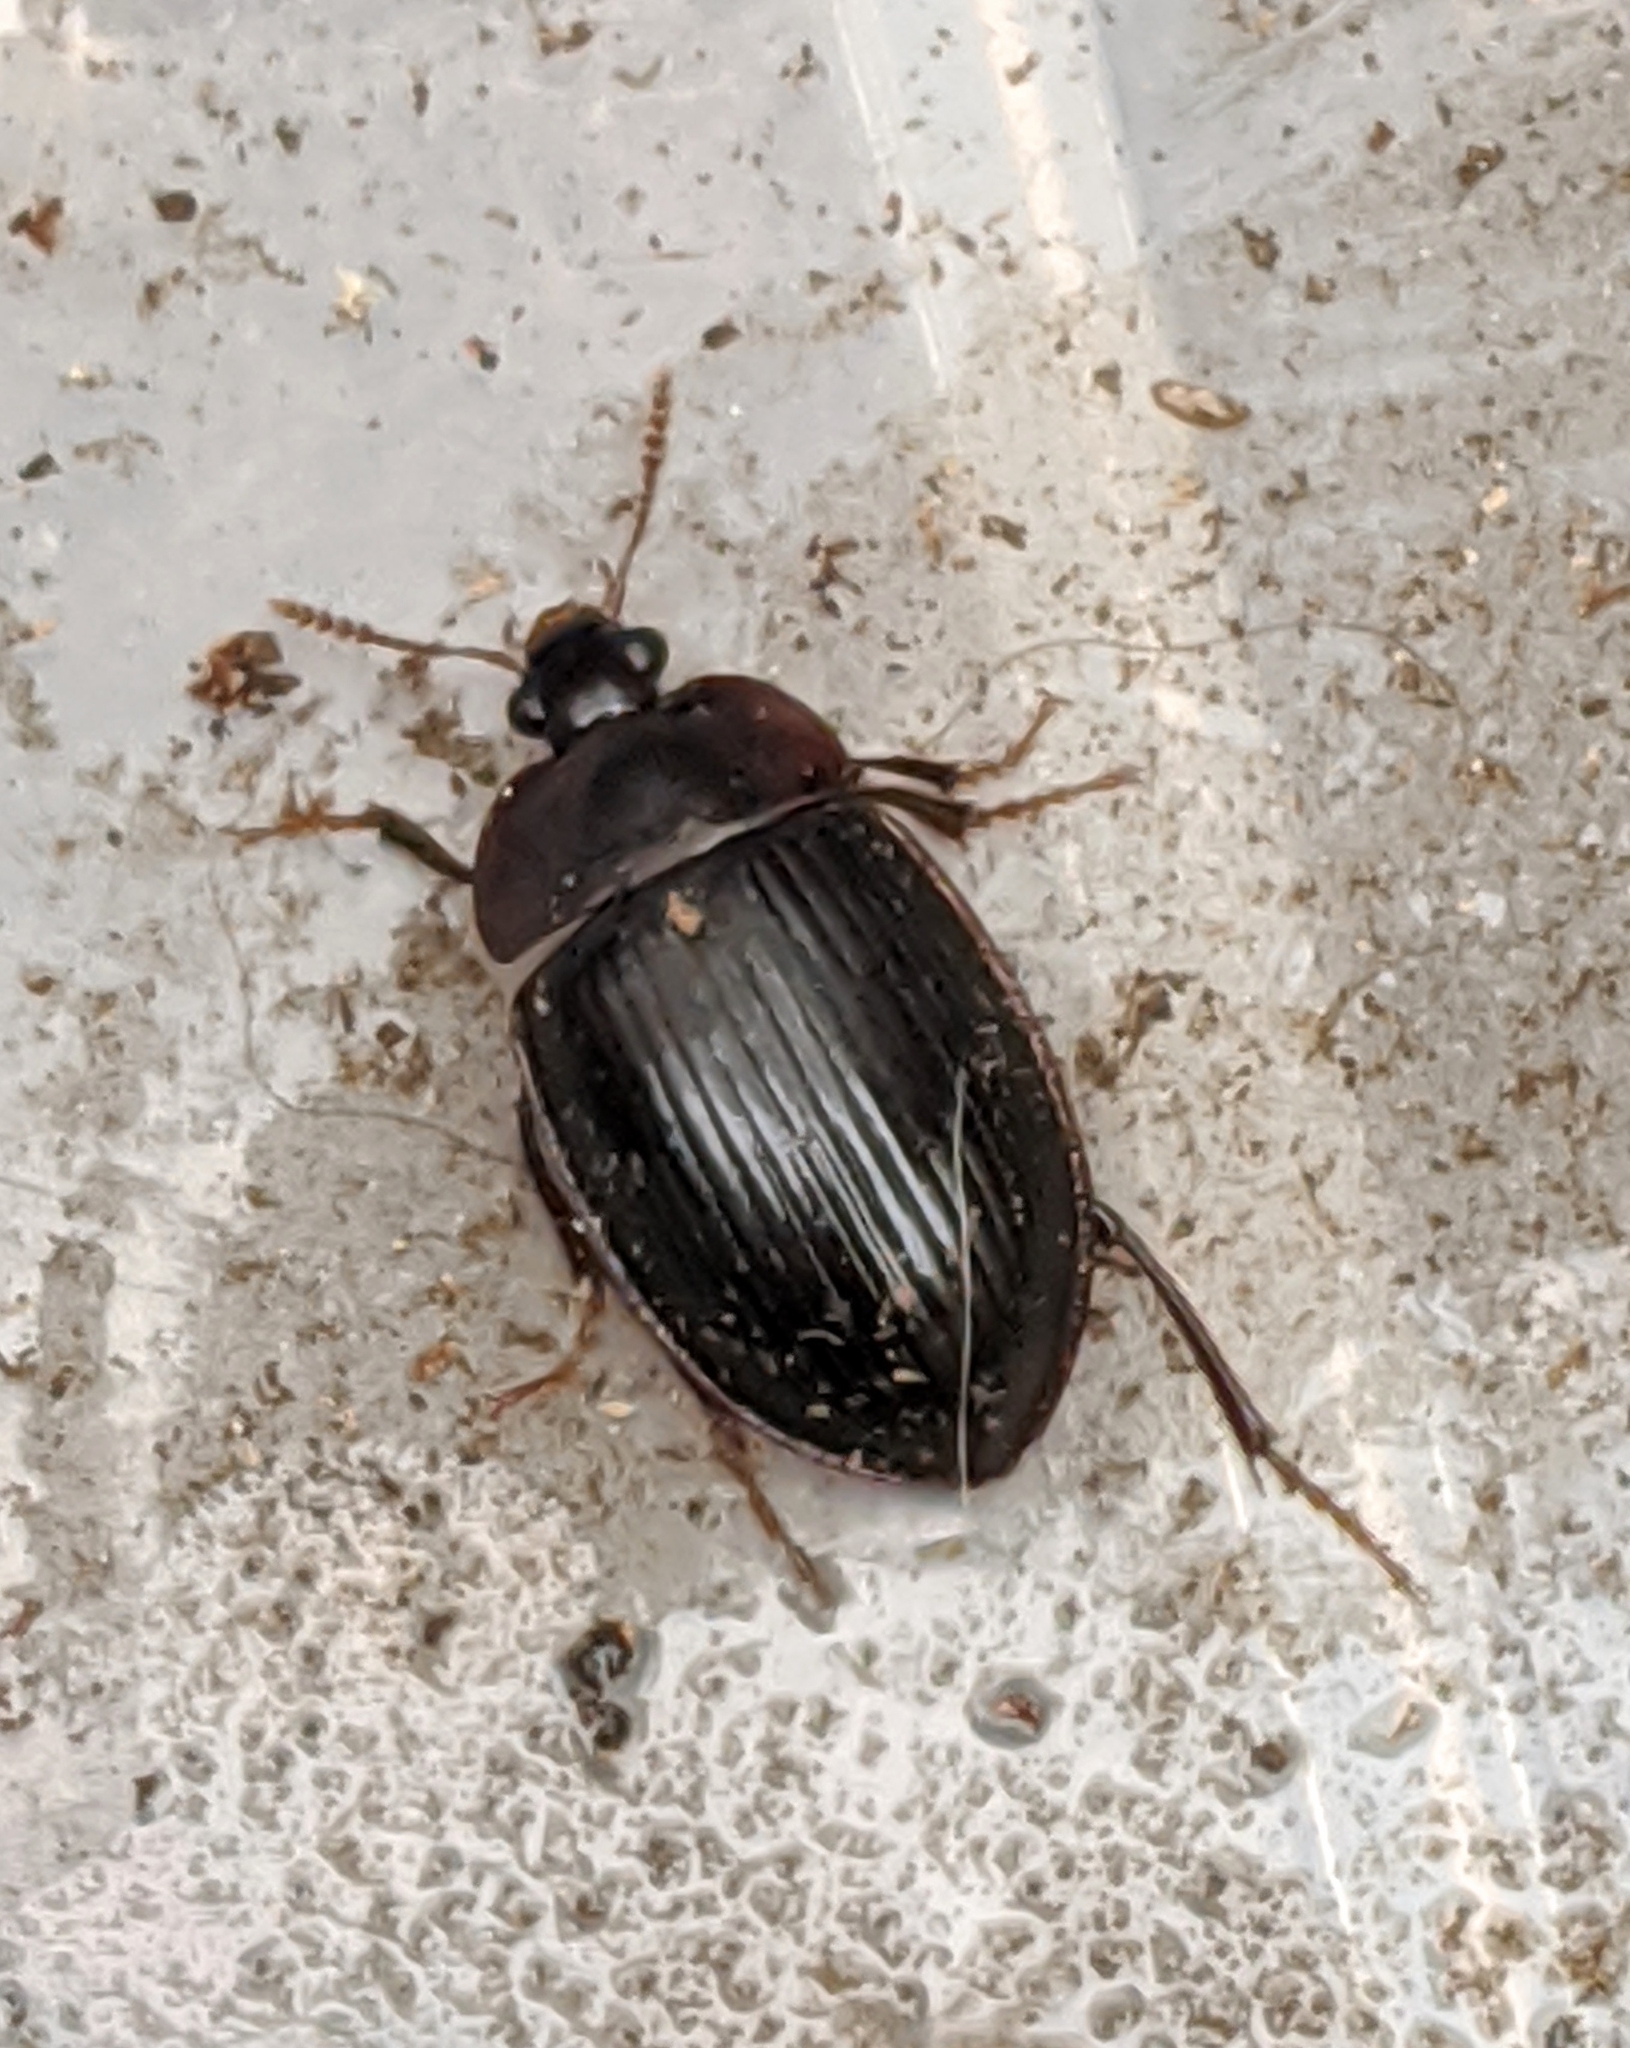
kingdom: Animalia
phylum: Arthropoda
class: Insecta
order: Coleoptera
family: Agyrtidae
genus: Necrophilus
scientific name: Necrophilus hydrophiloides
